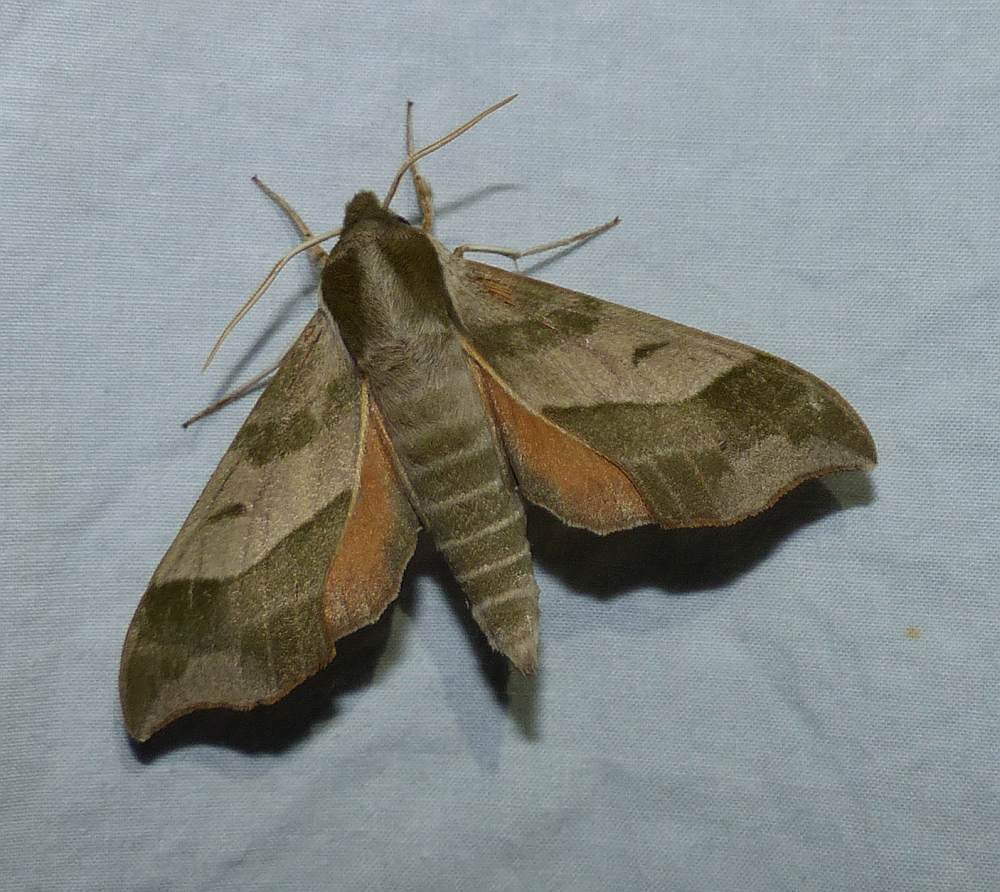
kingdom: Animalia
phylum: Arthropoda
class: Insecta
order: Lepidoptera
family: Sphingidae
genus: Darapsa
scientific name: Darapsa myron
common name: Hog sphinx
